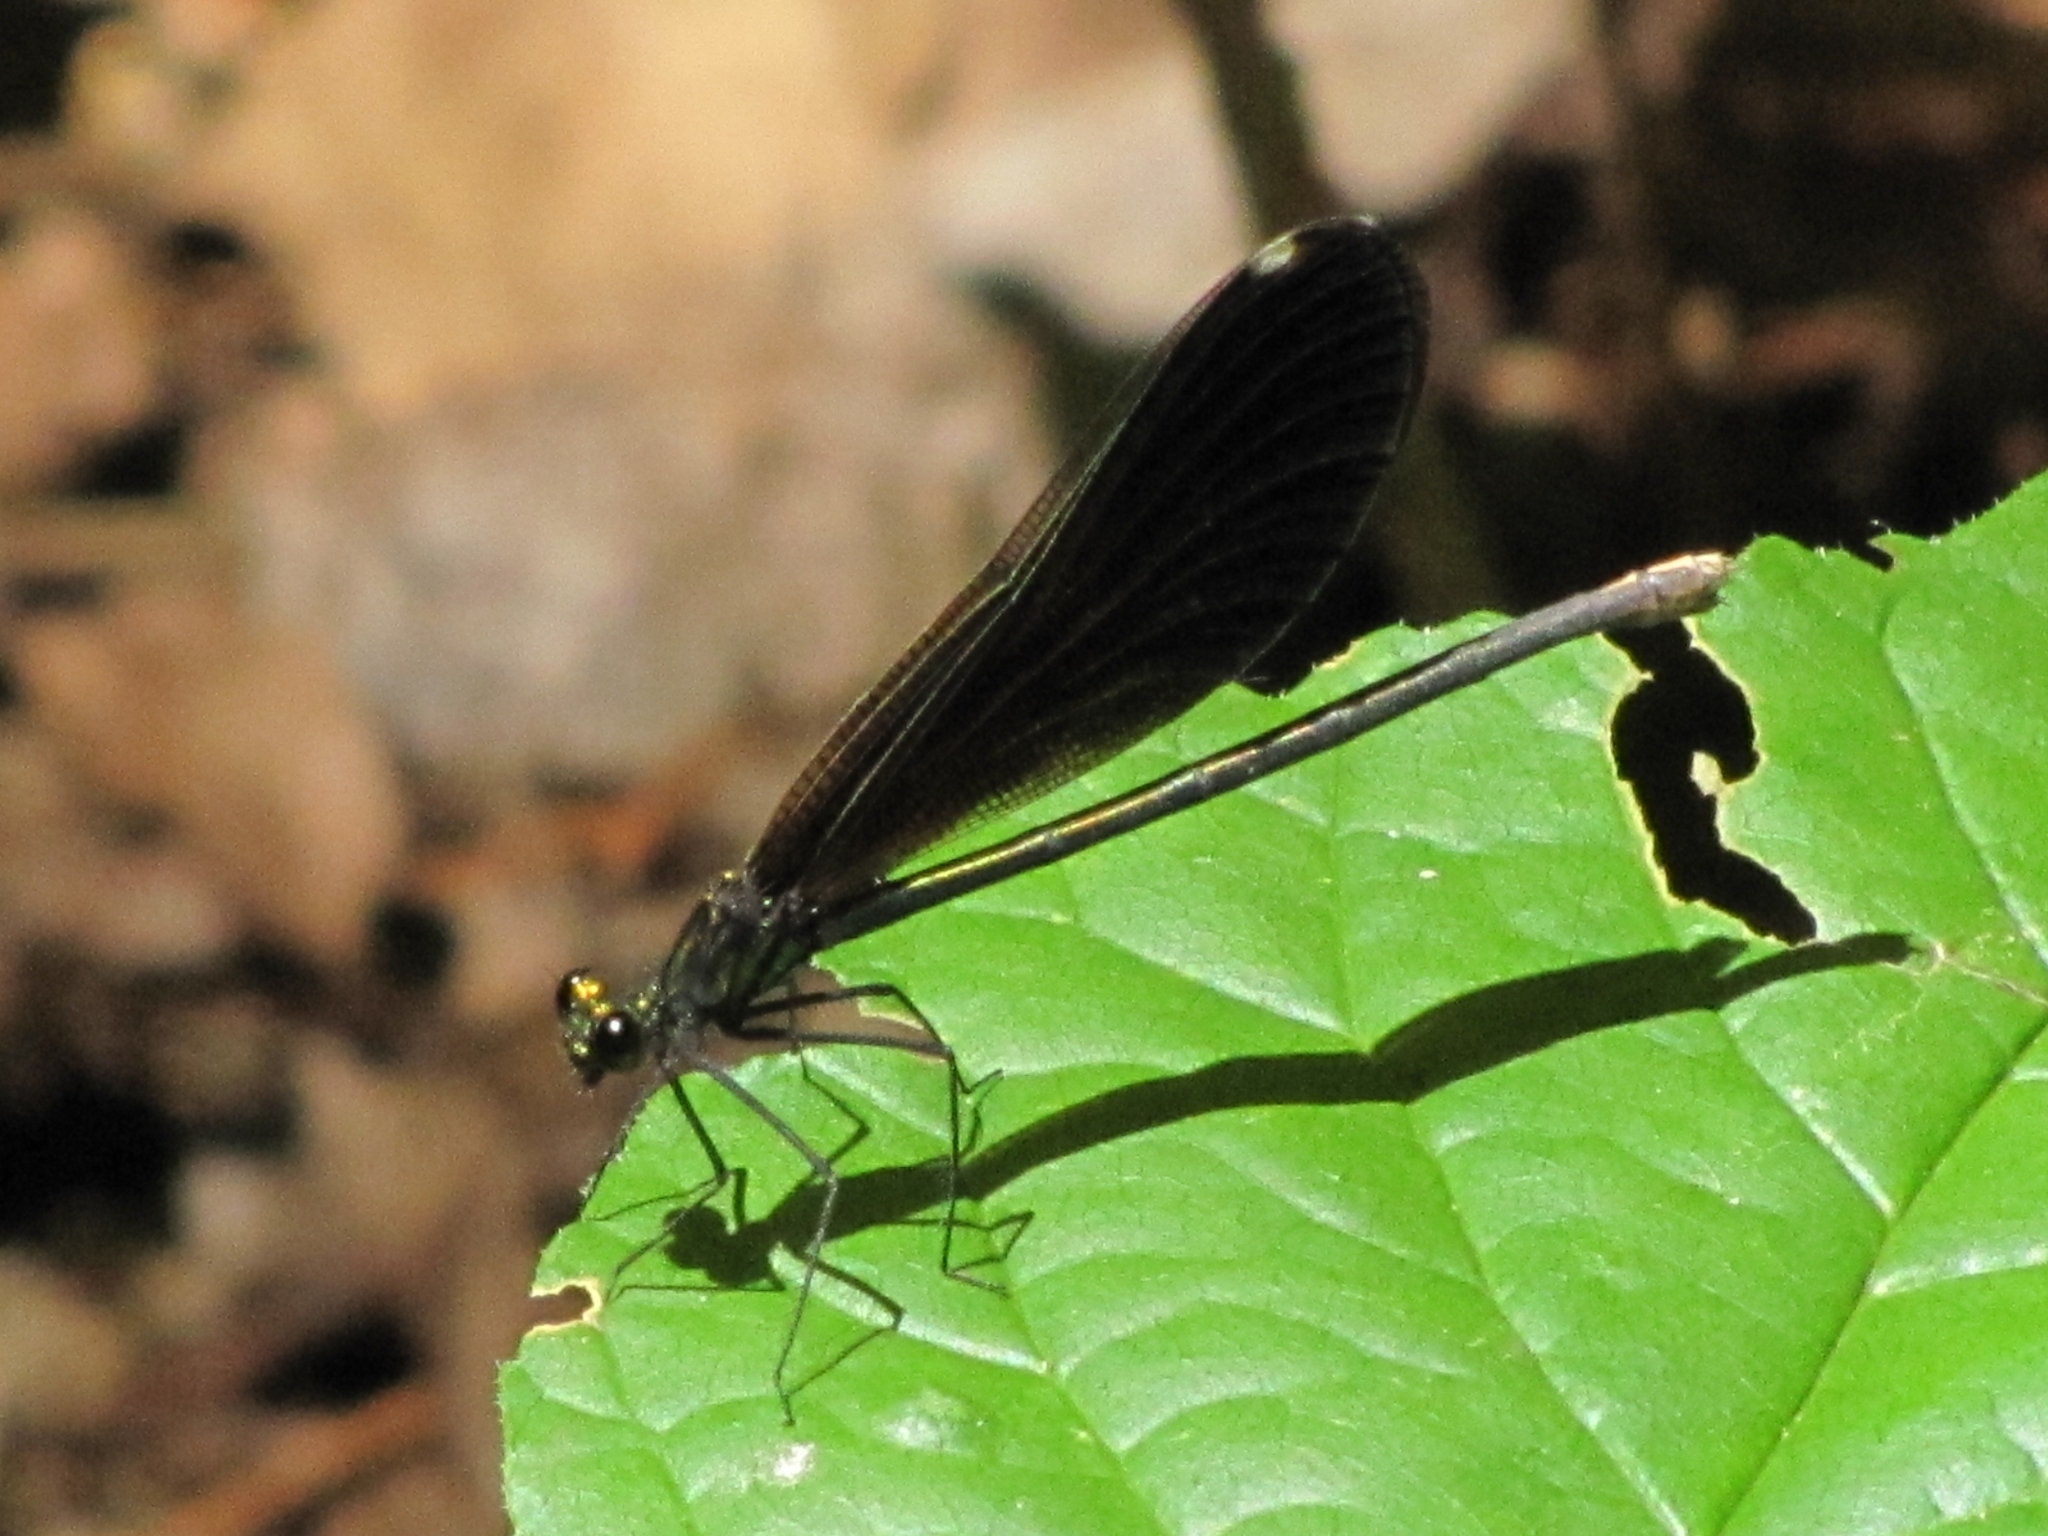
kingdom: Animalia
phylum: Arthropoda
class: Insecta
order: Odonata
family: Calopterygidae
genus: Calopteryx
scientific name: Calopteryx maculata
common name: Ebony jewelwing
